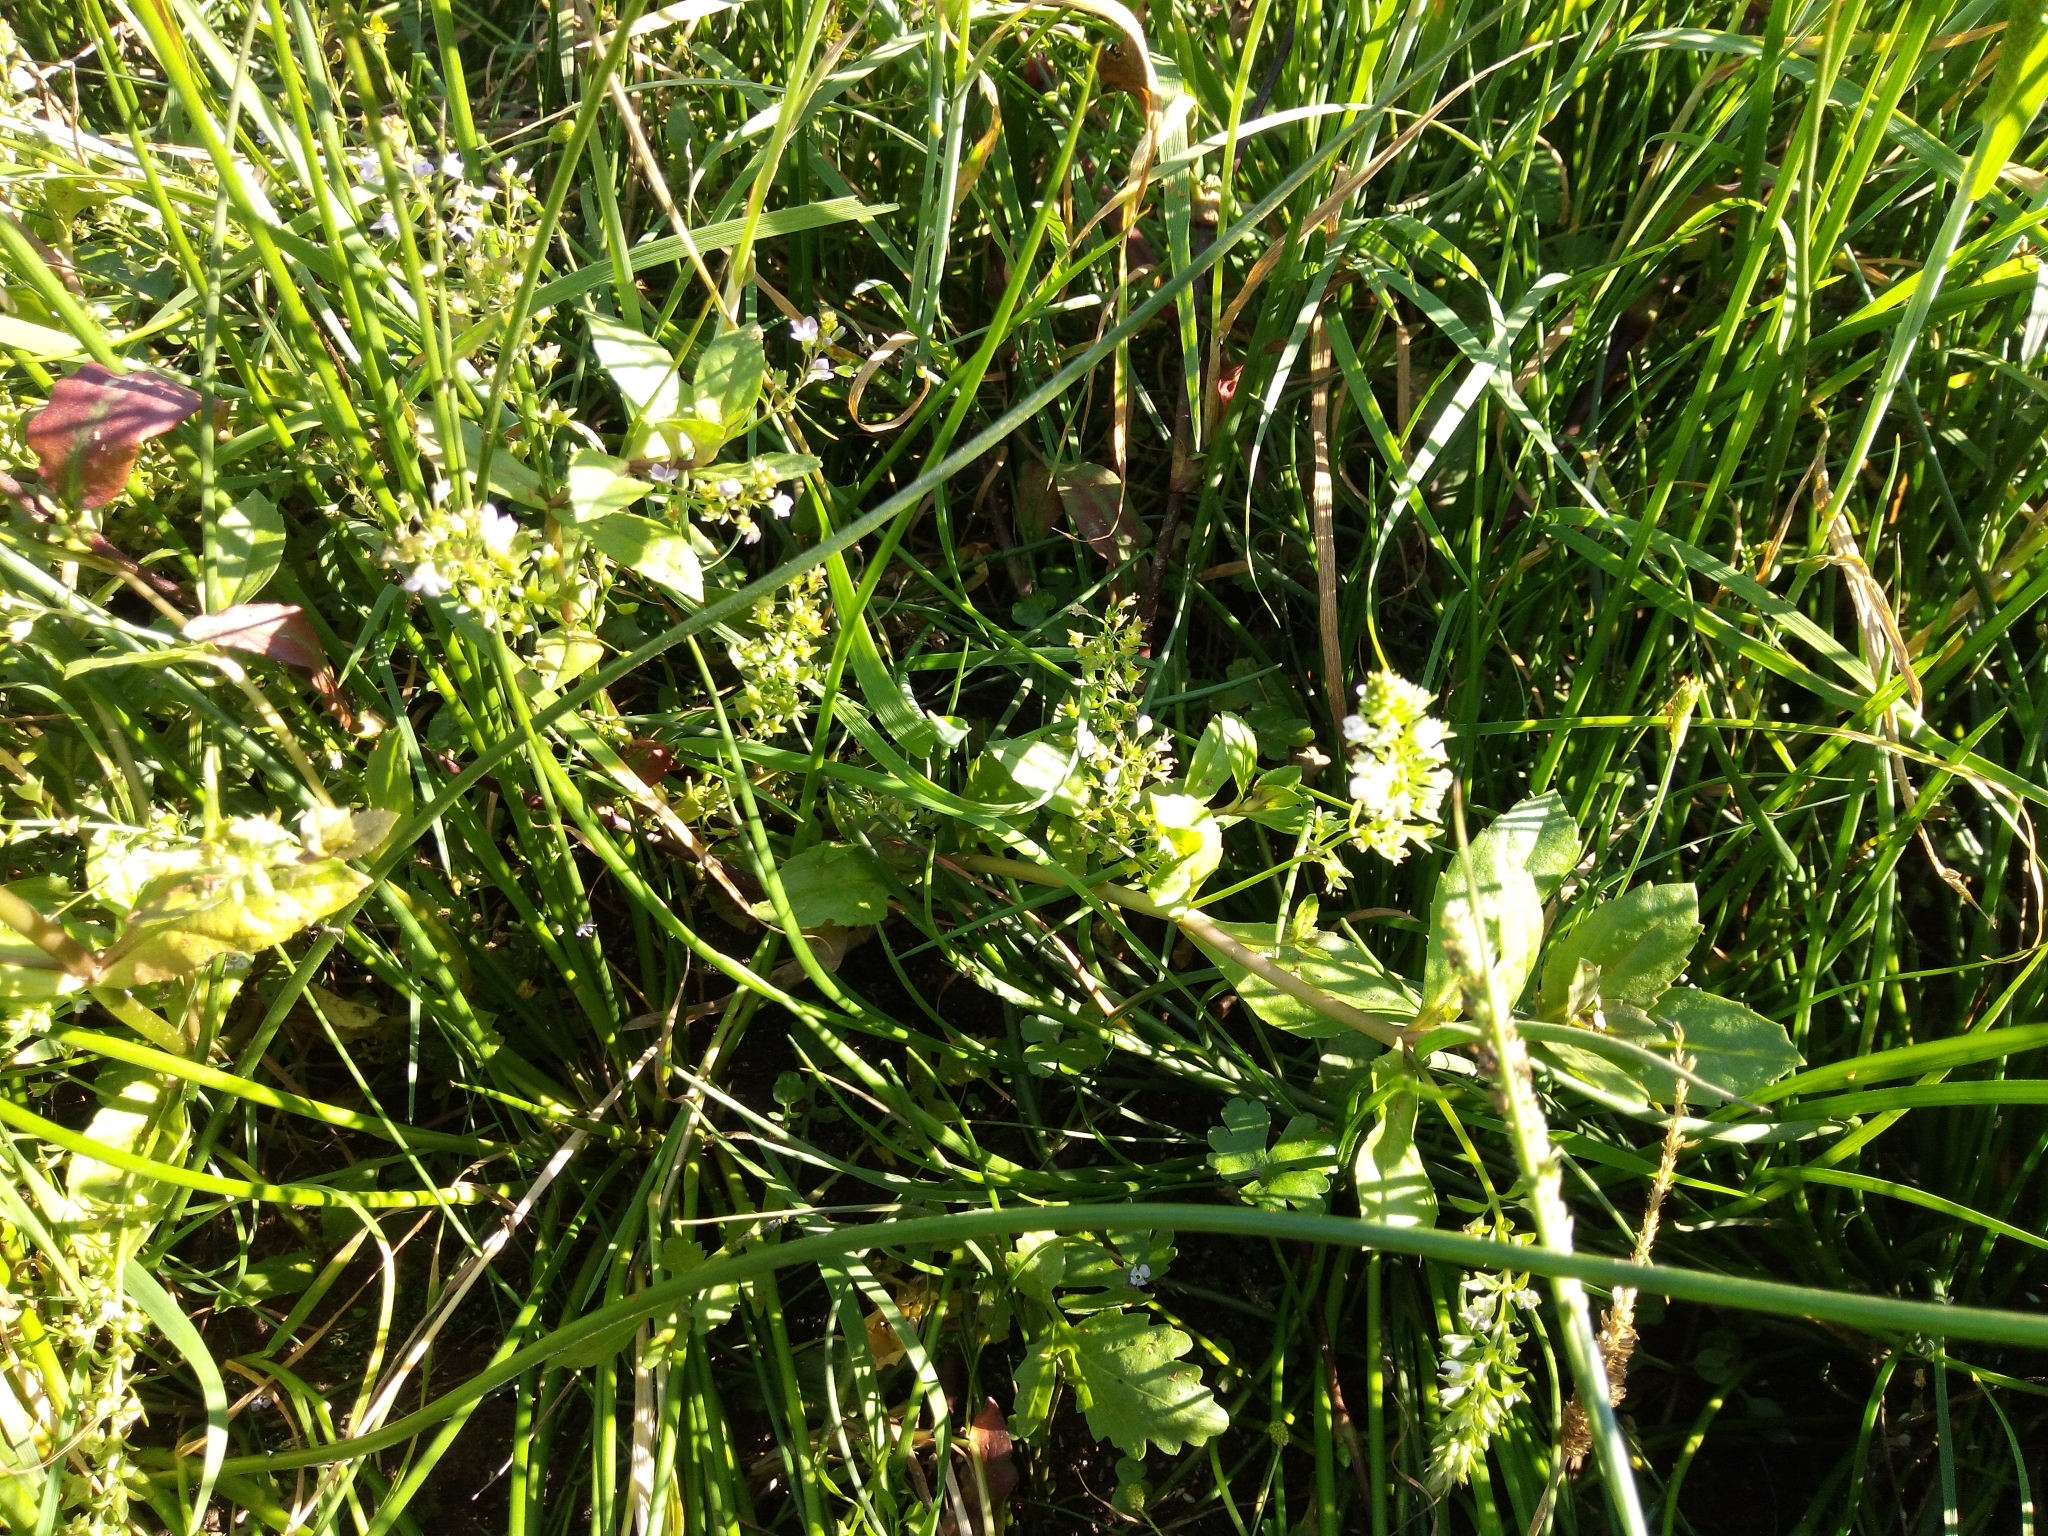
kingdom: Plantae
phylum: Tracheophyta
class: Magnoliopsida
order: Lamiales
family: Plantaginaceae
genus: Veronica
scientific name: Veronica catenata
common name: Pink water-speedwell
